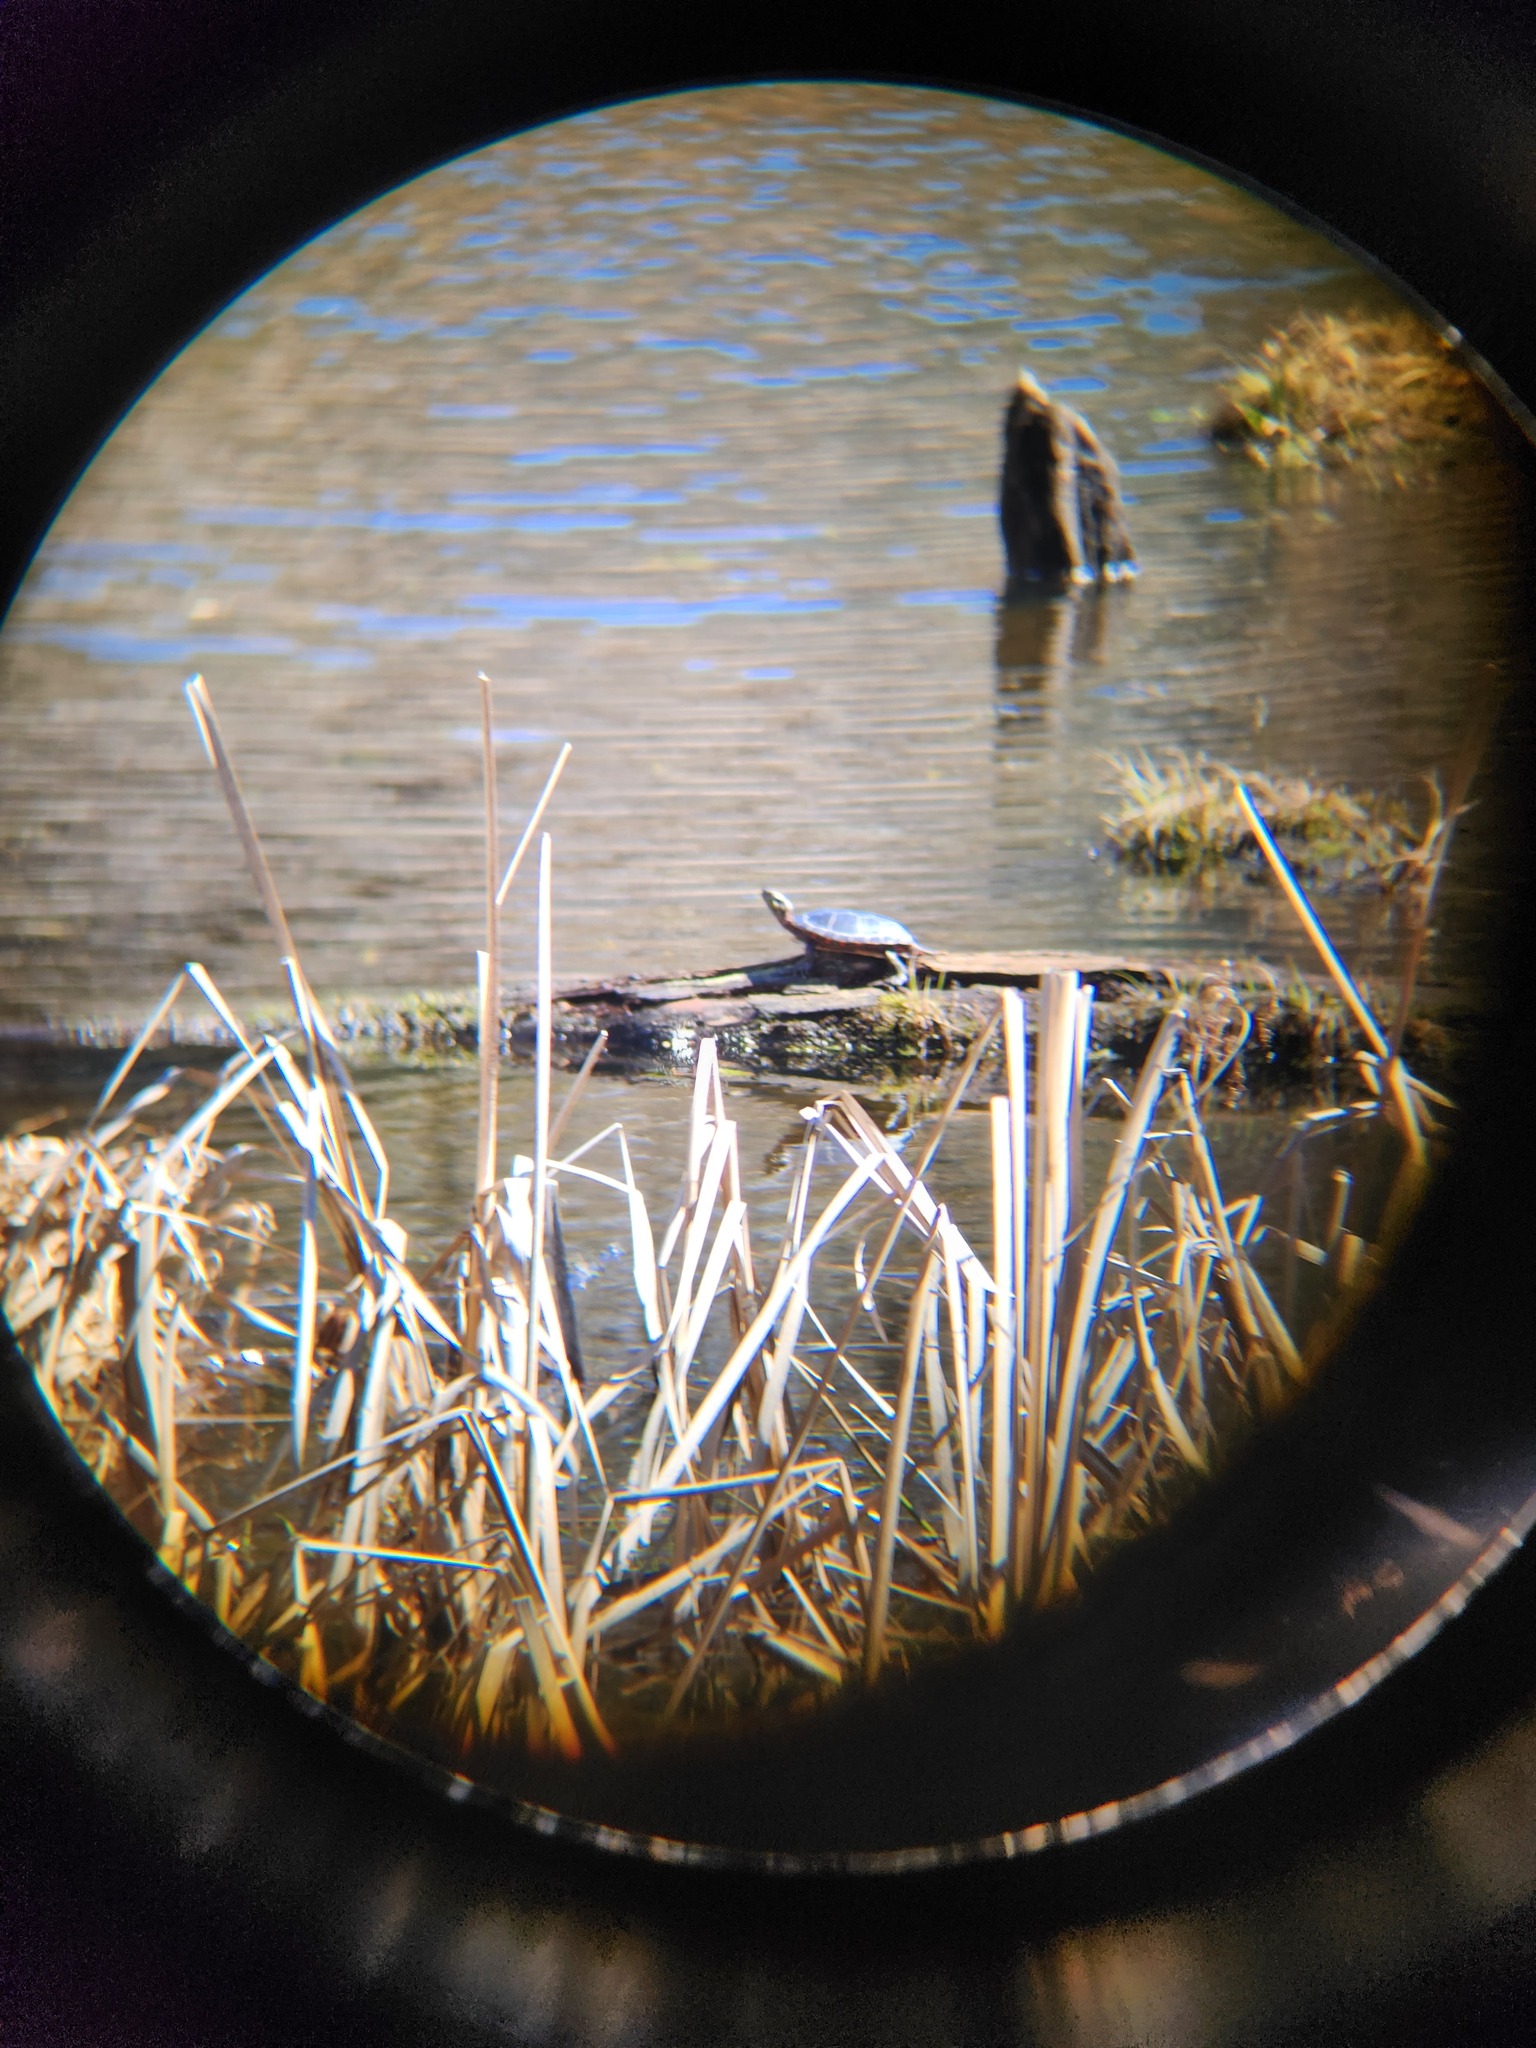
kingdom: Animalia
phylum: Chordata
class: Testudines
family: Emydidae
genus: Chrysemys
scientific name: Chrysemys picta
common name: Painted turtle
